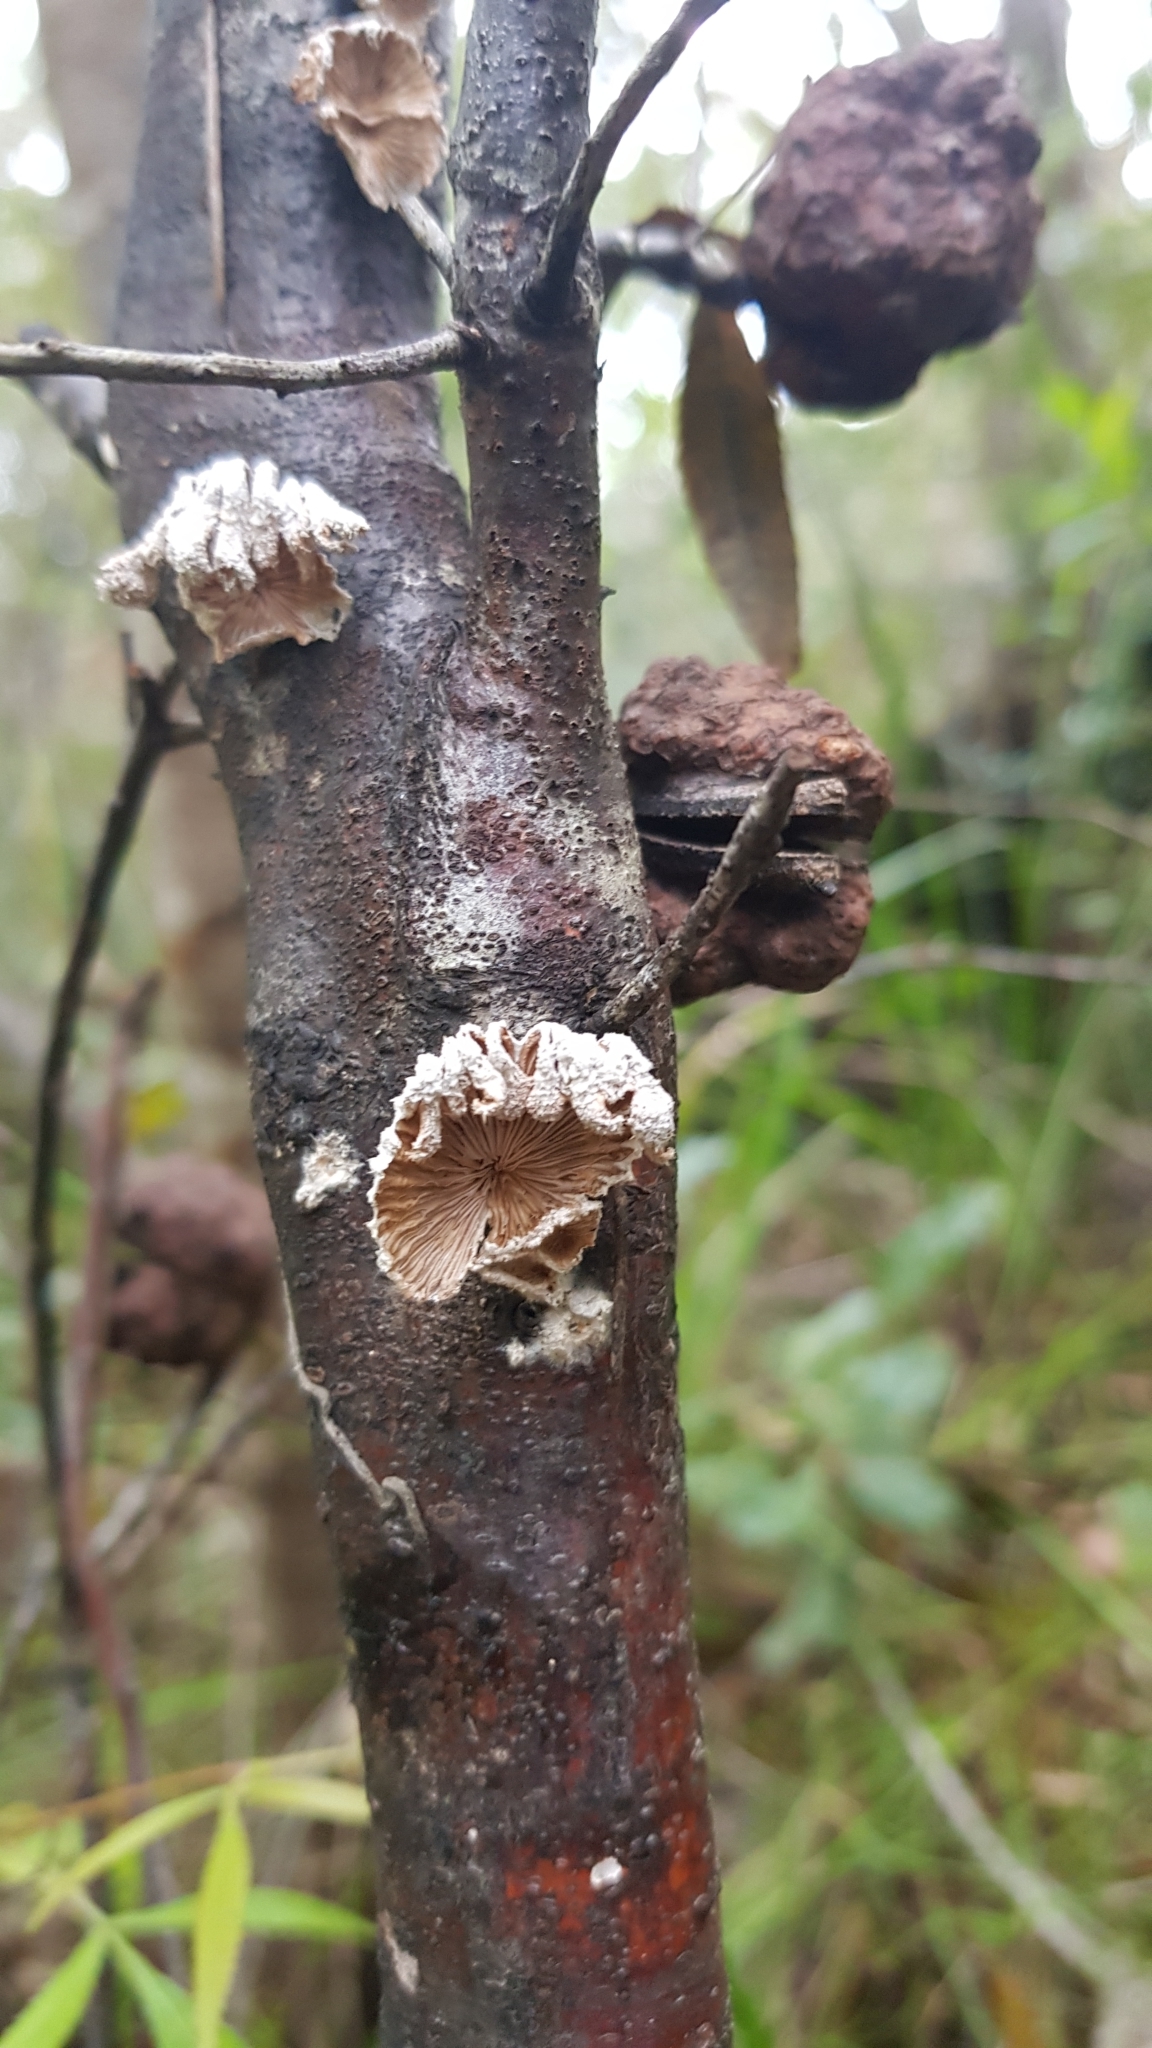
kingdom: Fungi
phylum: Basidiomycota
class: Agaricomycetes
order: Agaricales
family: Schizophyllaceae
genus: Schizophyllum
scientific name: Schizophyllum commune
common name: Common porecrust
